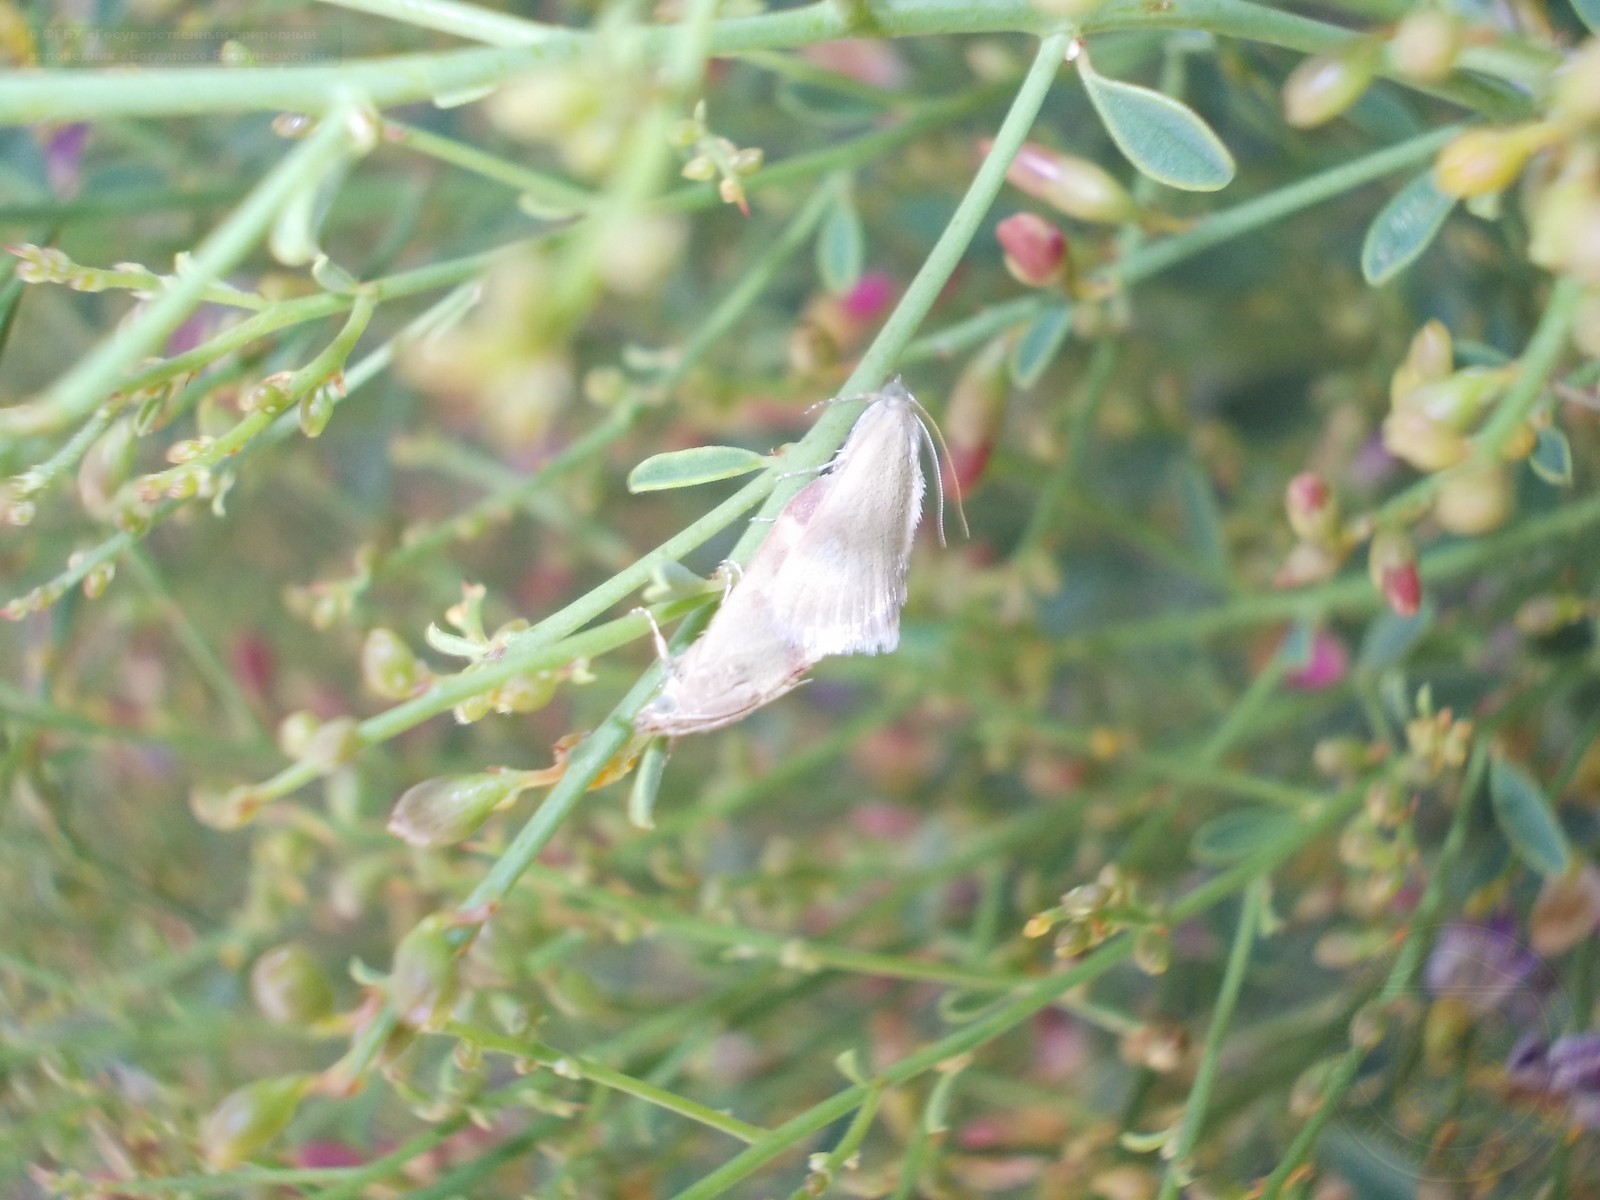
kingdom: Animalia
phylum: Arthropoda
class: Insecta
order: Lepidoptera
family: Crambidae
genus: Tegostoma
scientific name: Tegostoma baphialis
